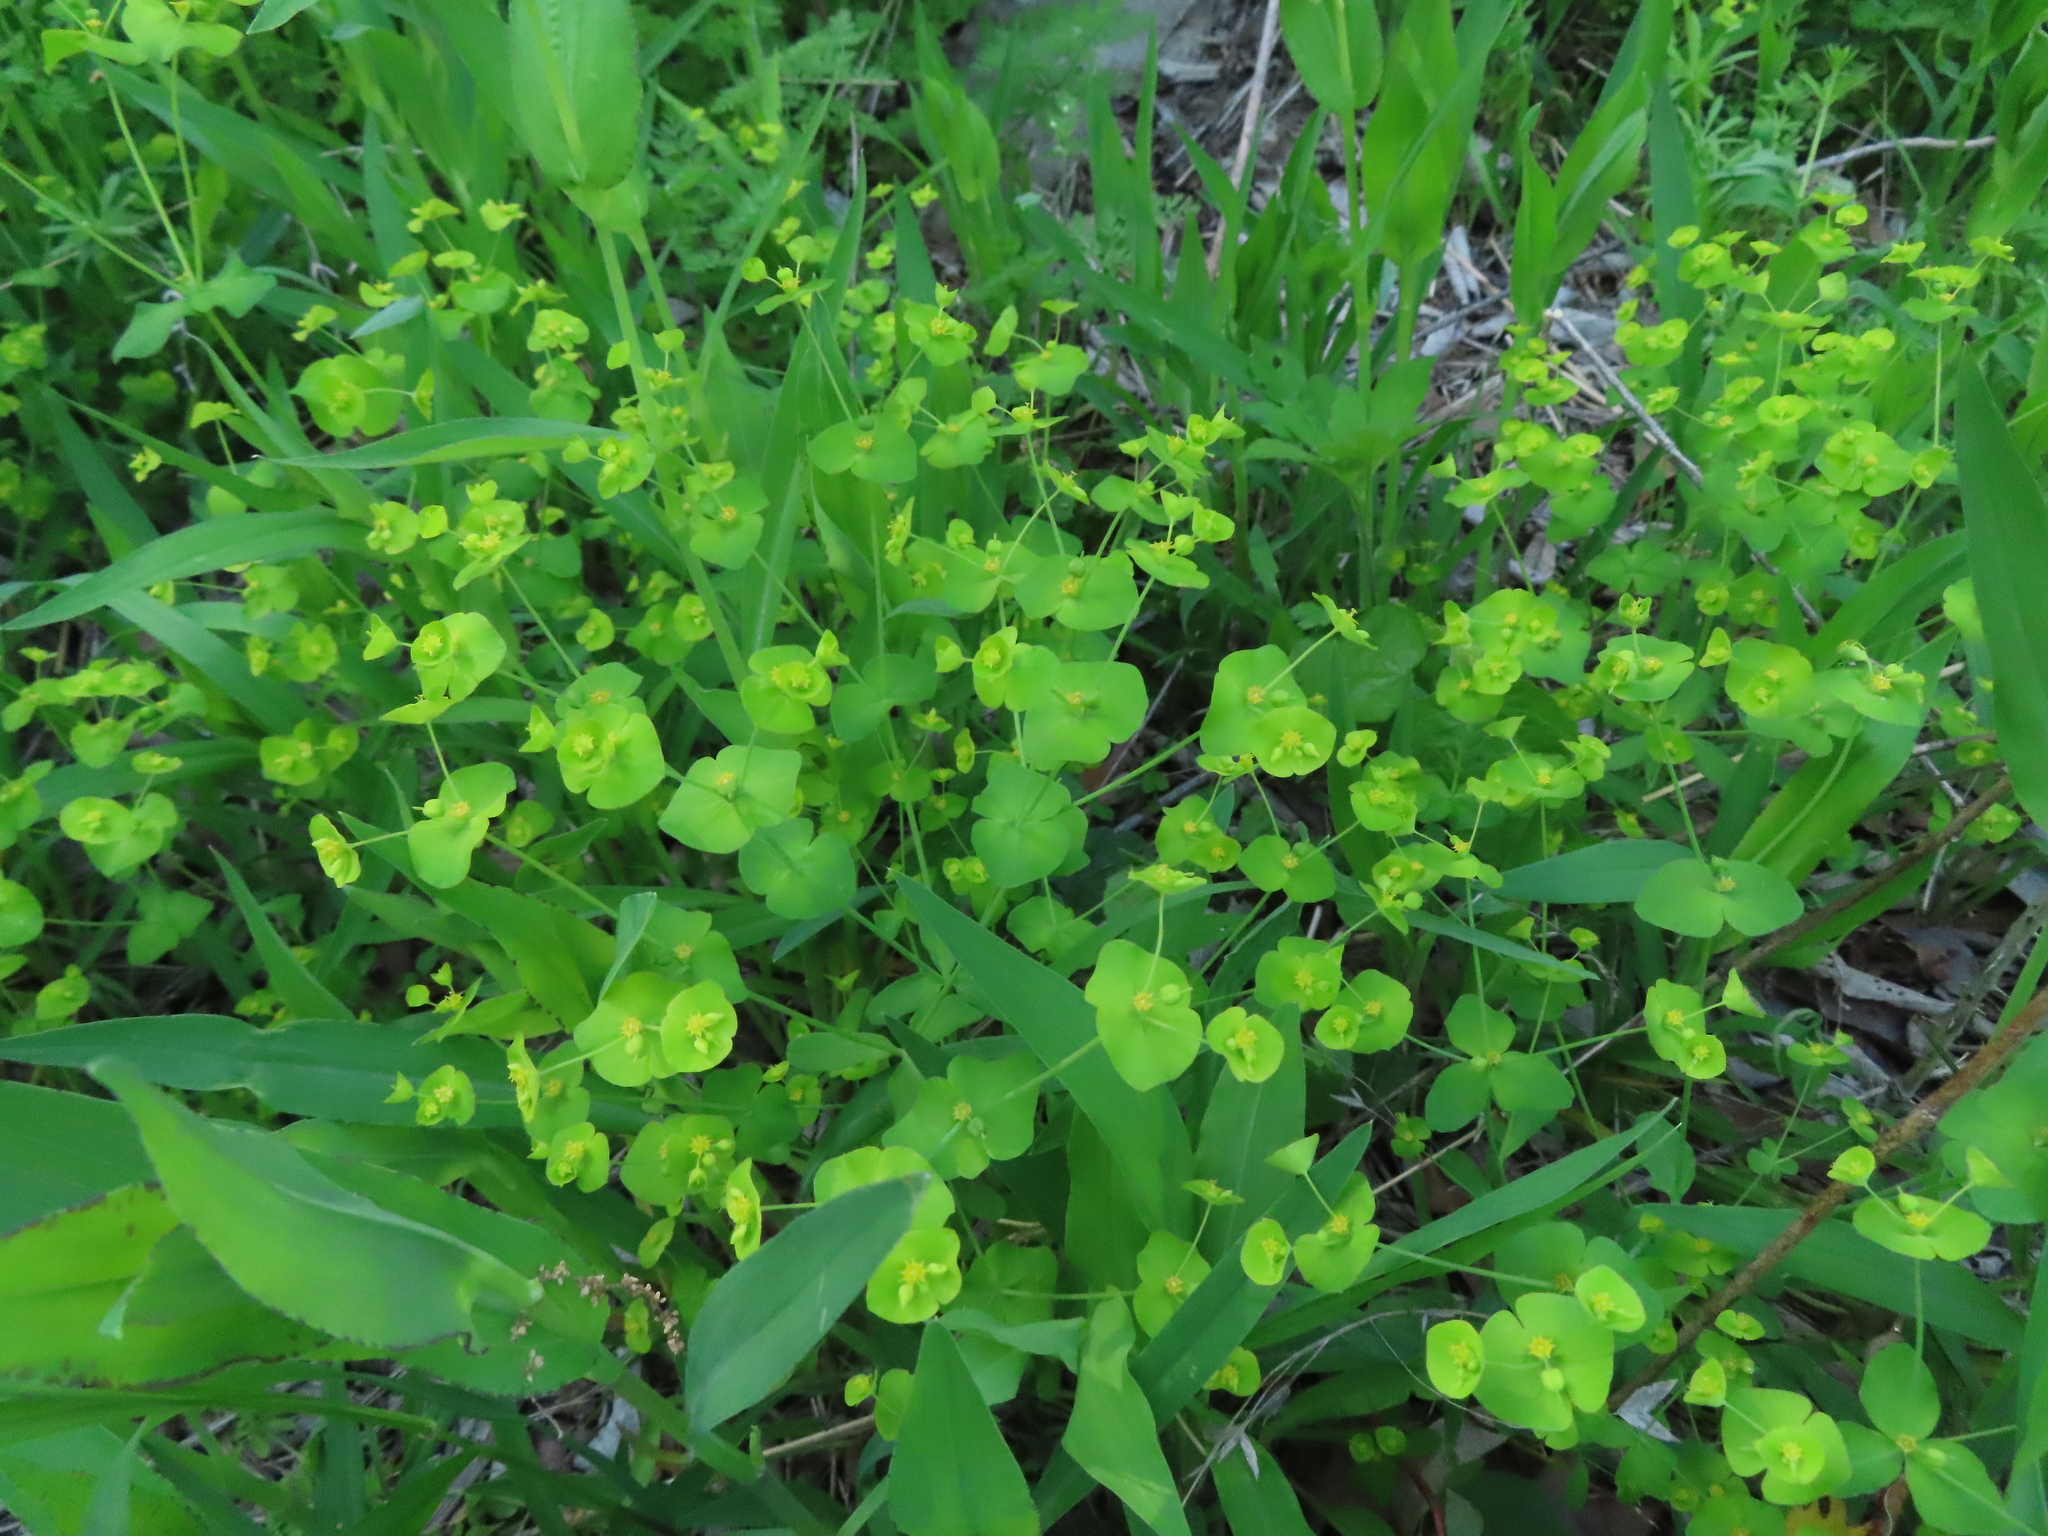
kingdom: Plantae
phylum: Tracheophyta
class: Magnoliopsida
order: Malpighiales
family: Euphorbiaceae
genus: Euphorbia
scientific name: Euphorbia roemeriana
